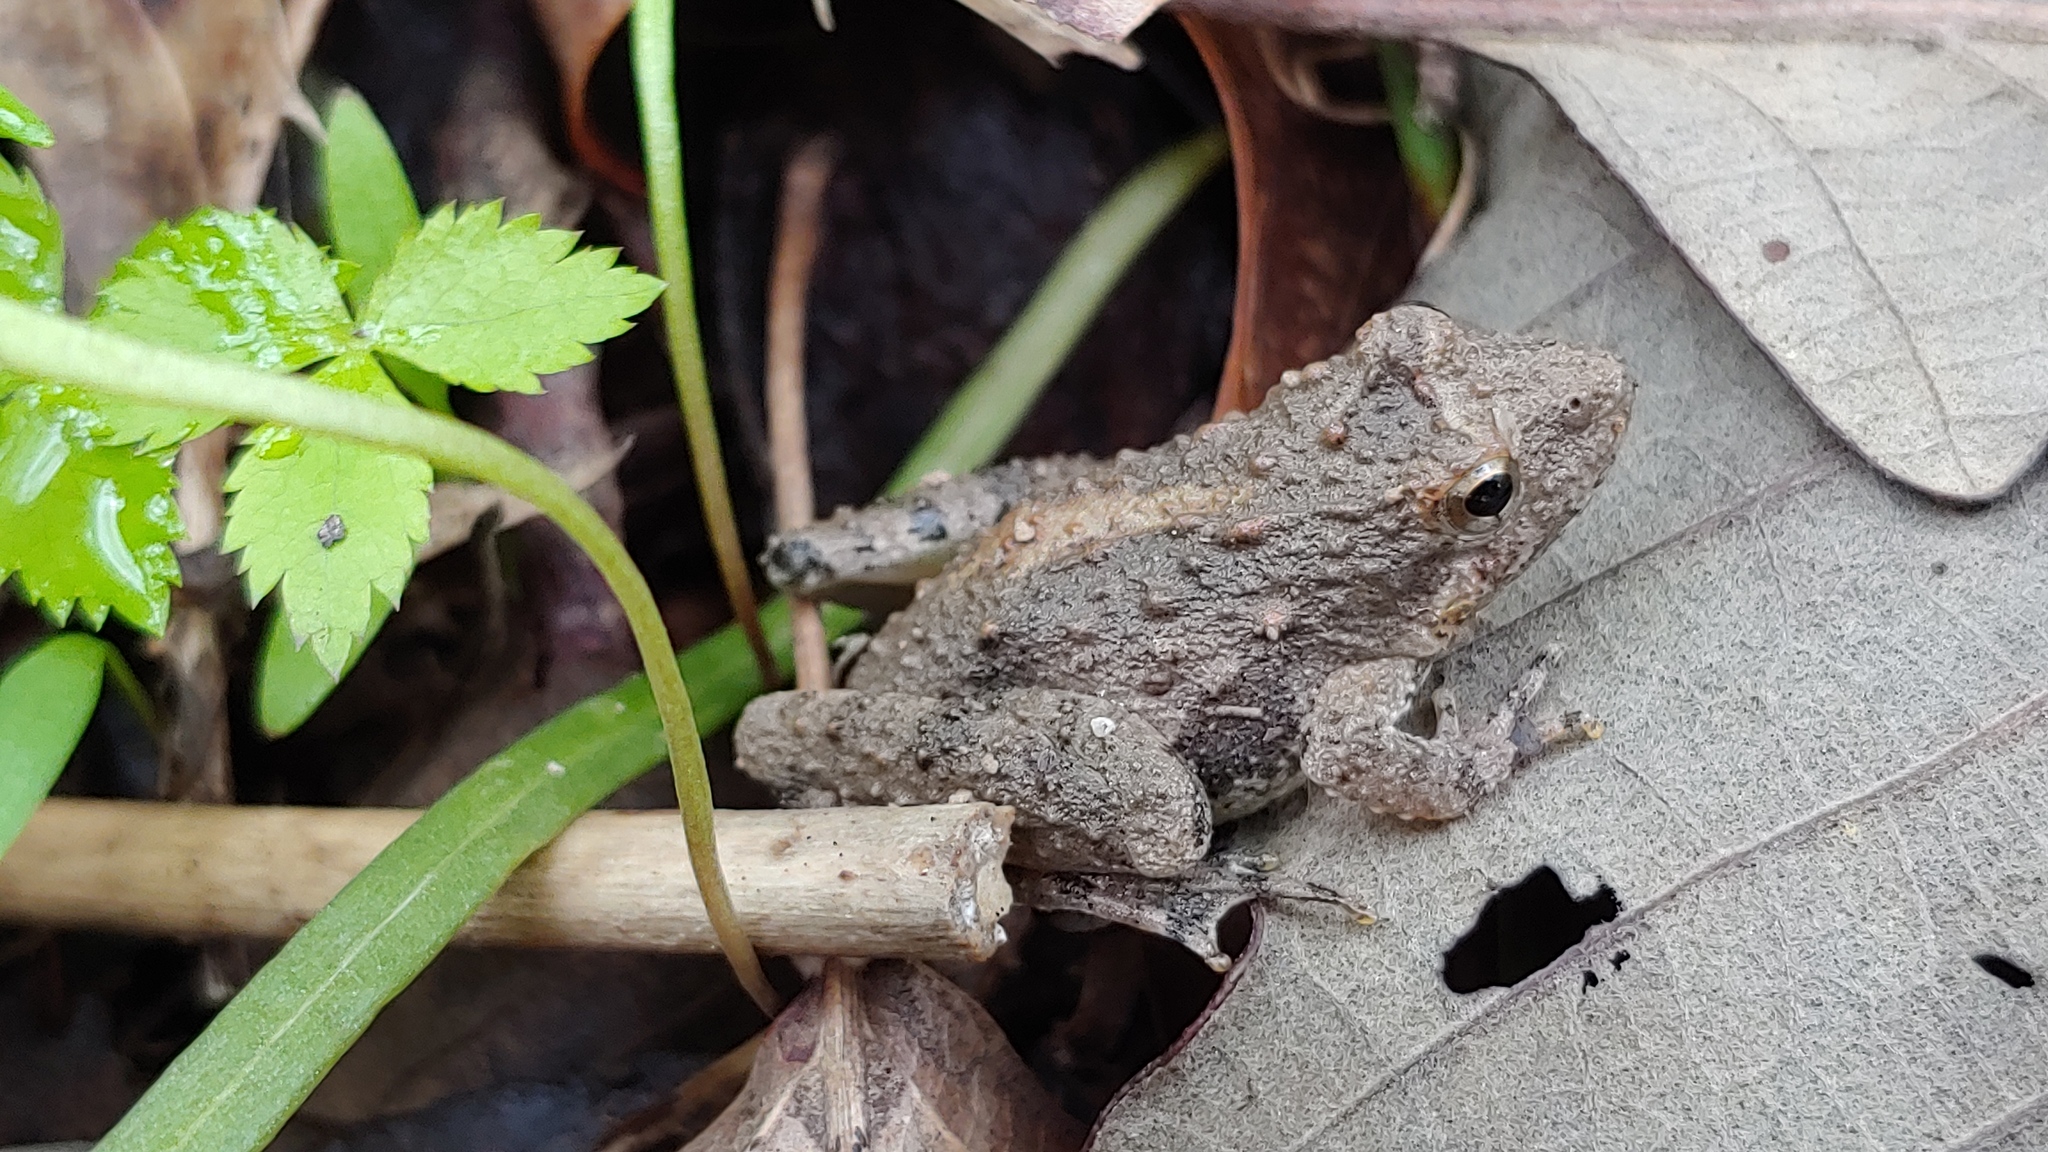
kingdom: Animalia
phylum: Chordata
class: Amphibia
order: Anura
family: Hylidae
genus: Acris
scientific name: Acris blanchardi
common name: Blanchard's cricket frog
